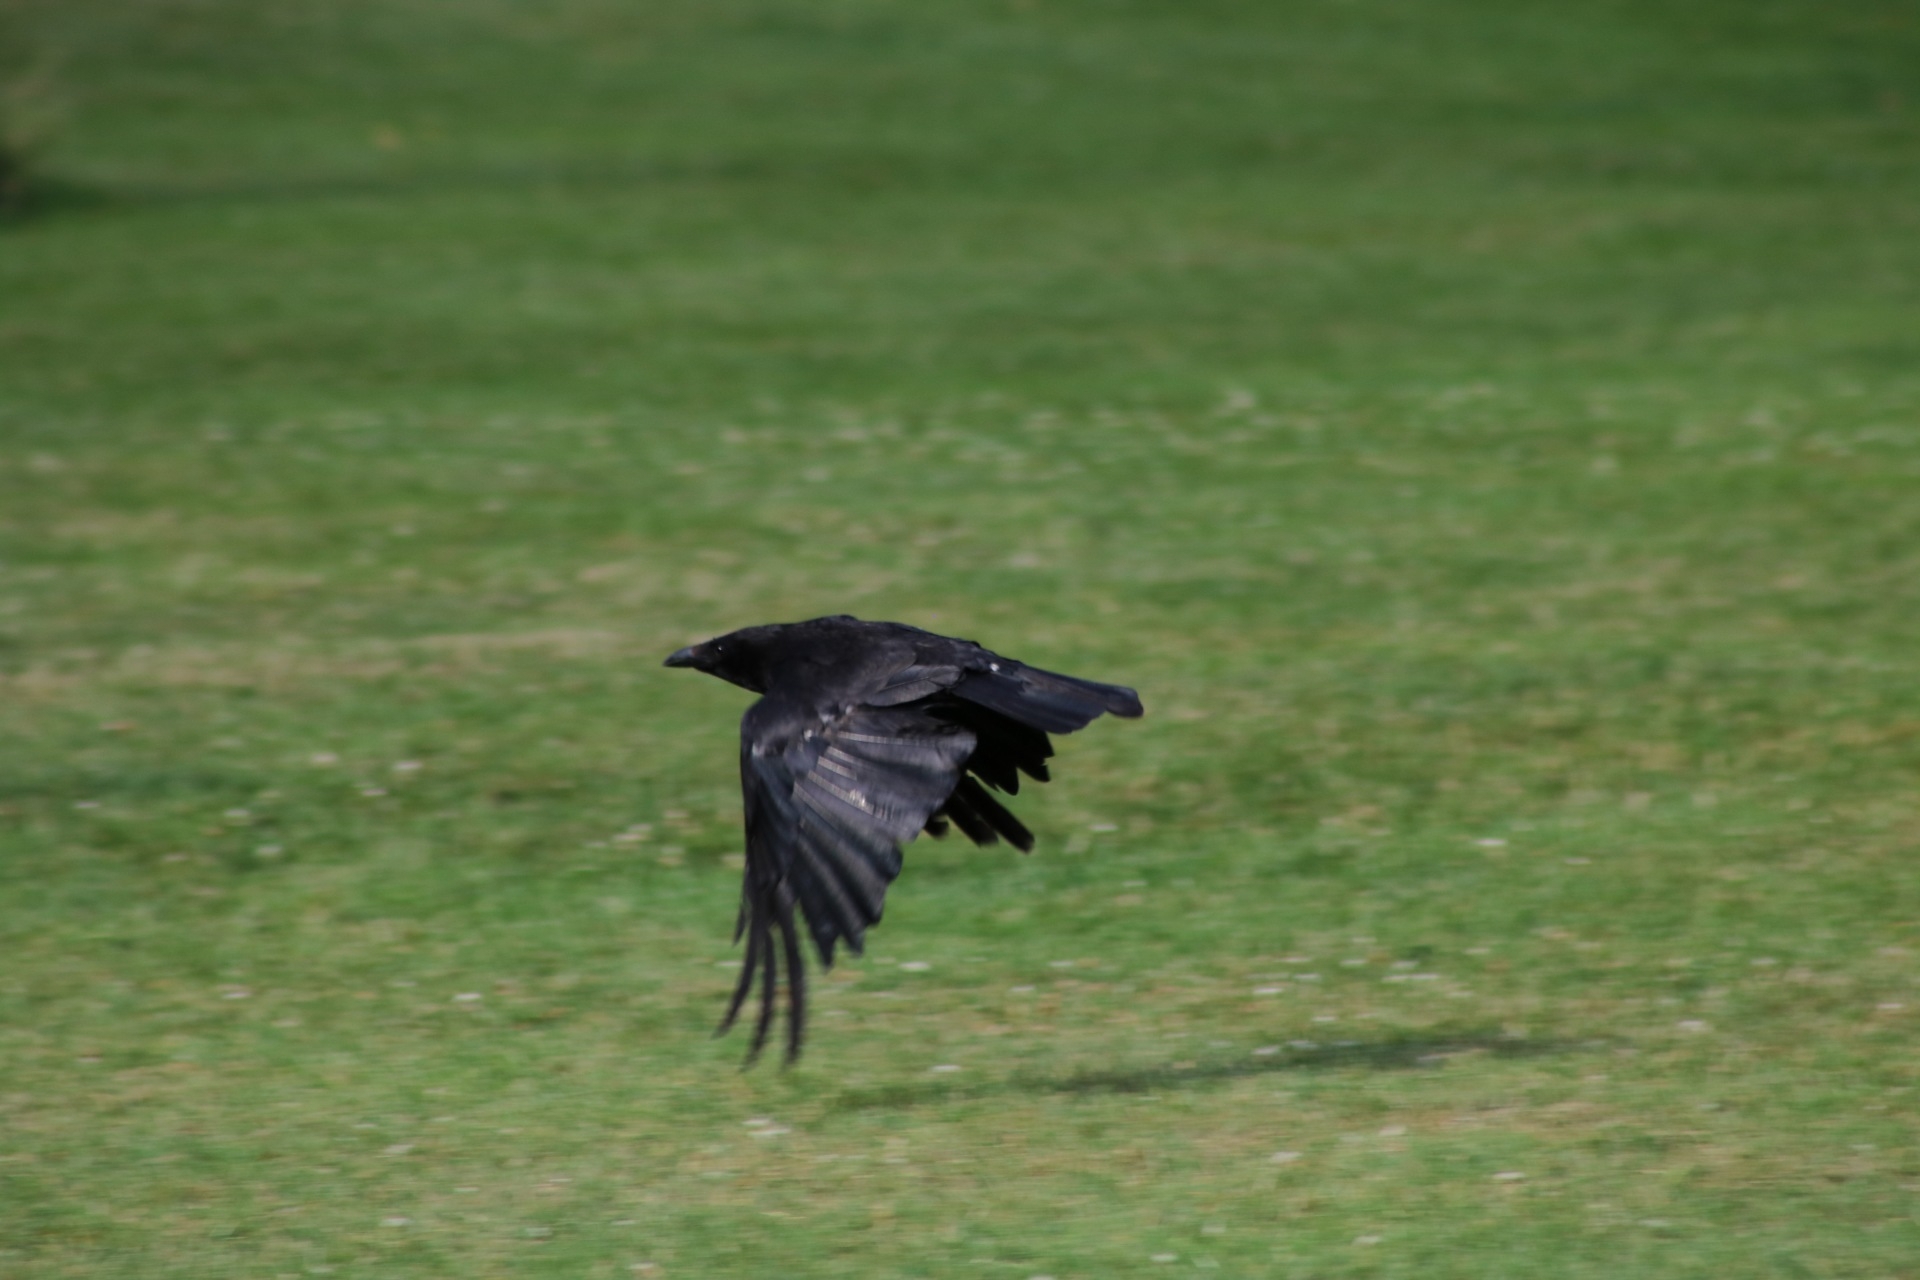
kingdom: Animalia
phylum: Chordata
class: Aves
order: Passeriformes
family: Corvidae
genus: Corvus
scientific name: Corvus corone
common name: Carrion crow
